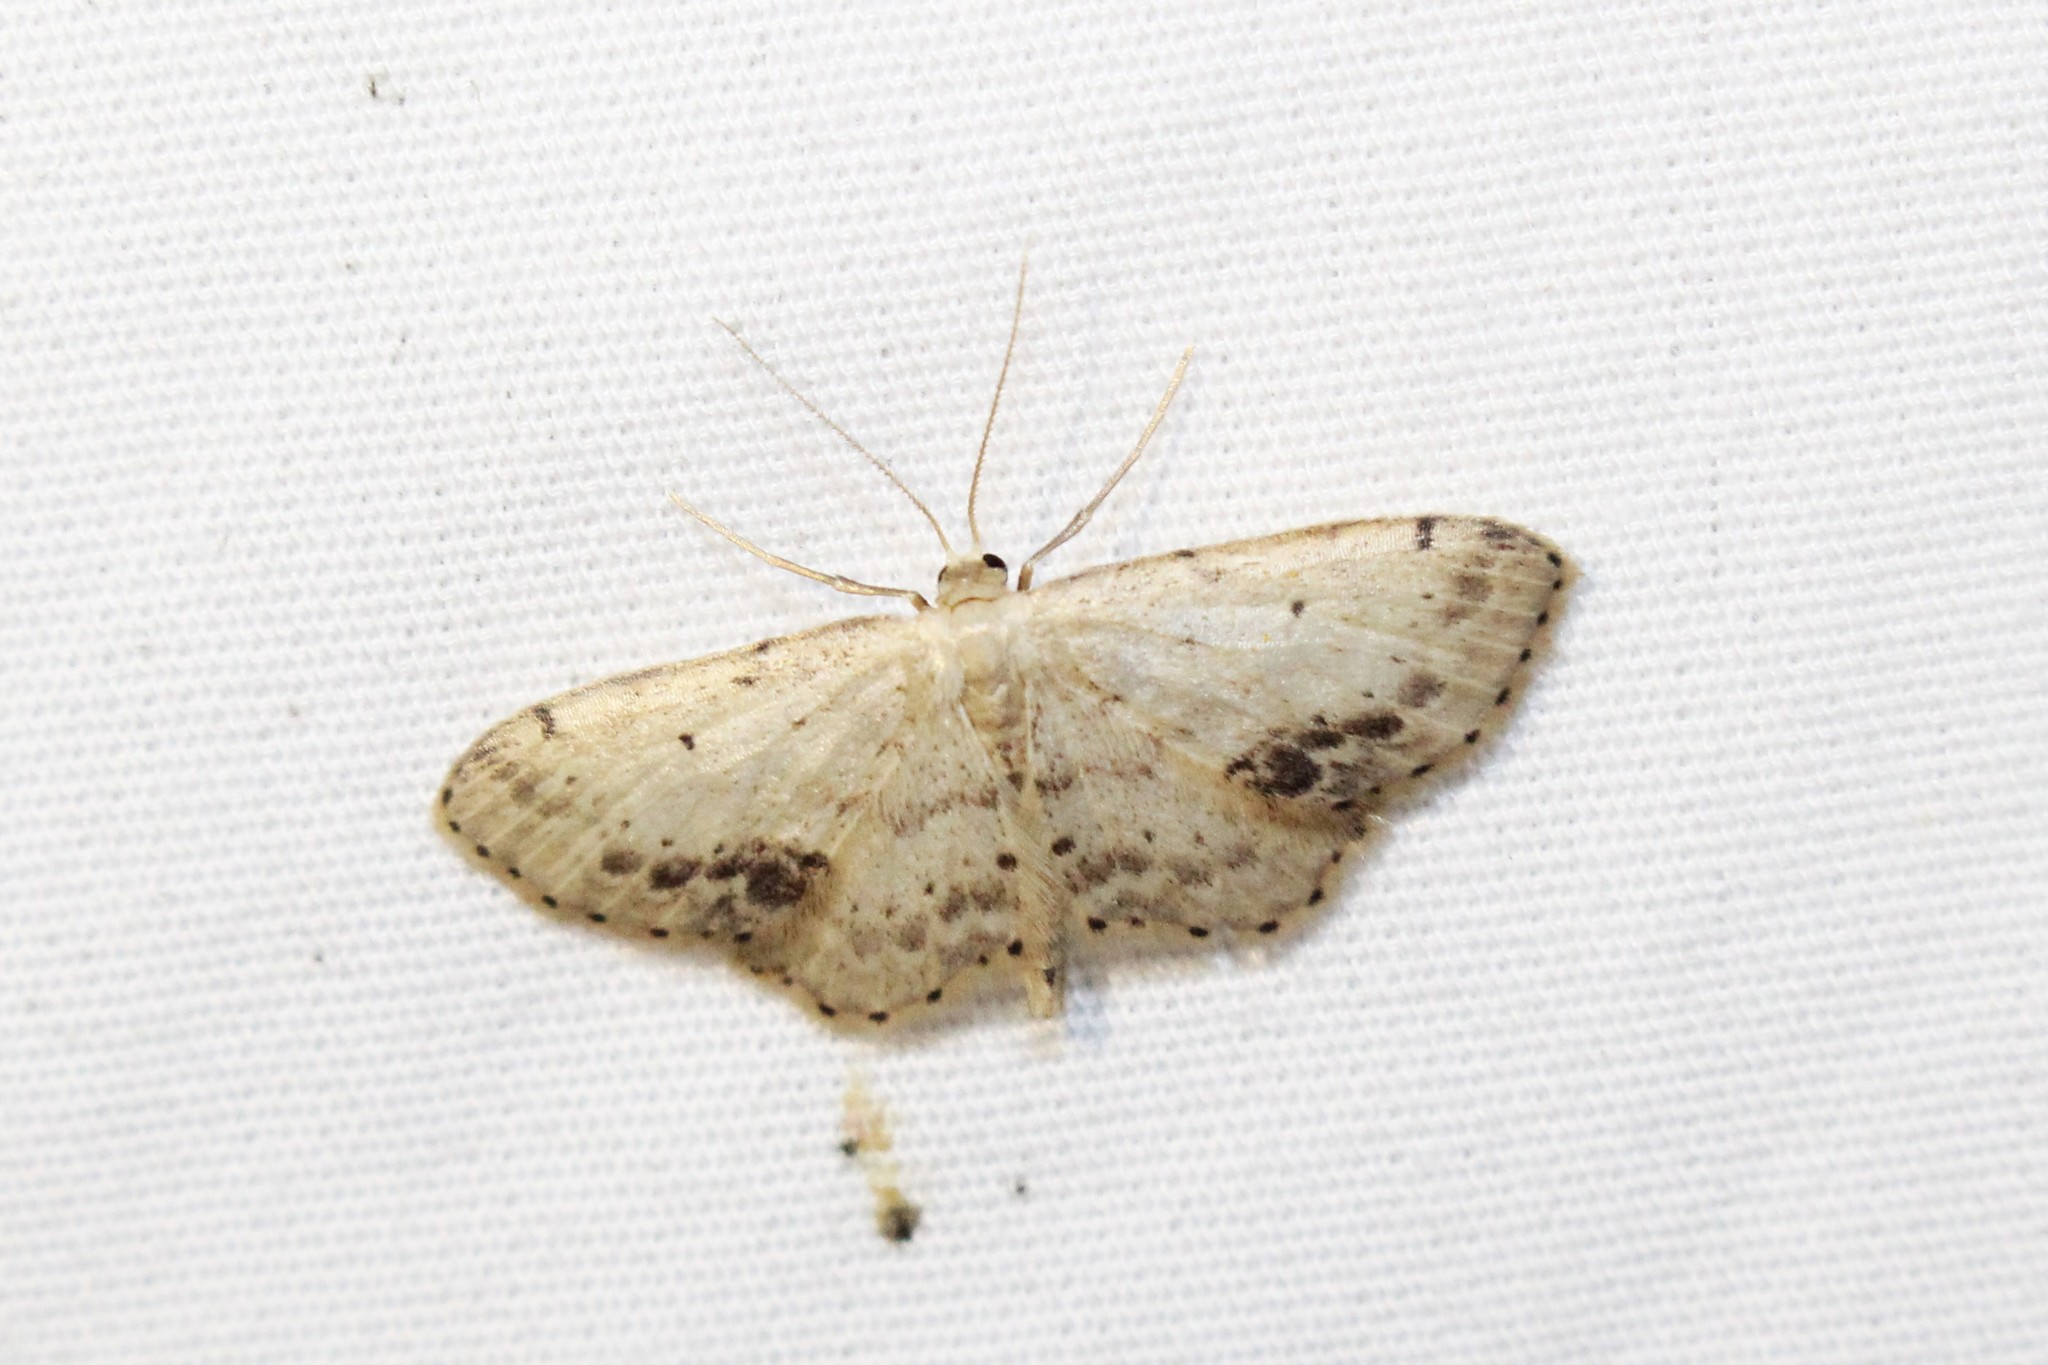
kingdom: Animalia
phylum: Arthropoda
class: Insecta
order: Lepidoptera
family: Geometridae
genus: Idaea
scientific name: Idaea dimidiata
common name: Single-dotted wave
